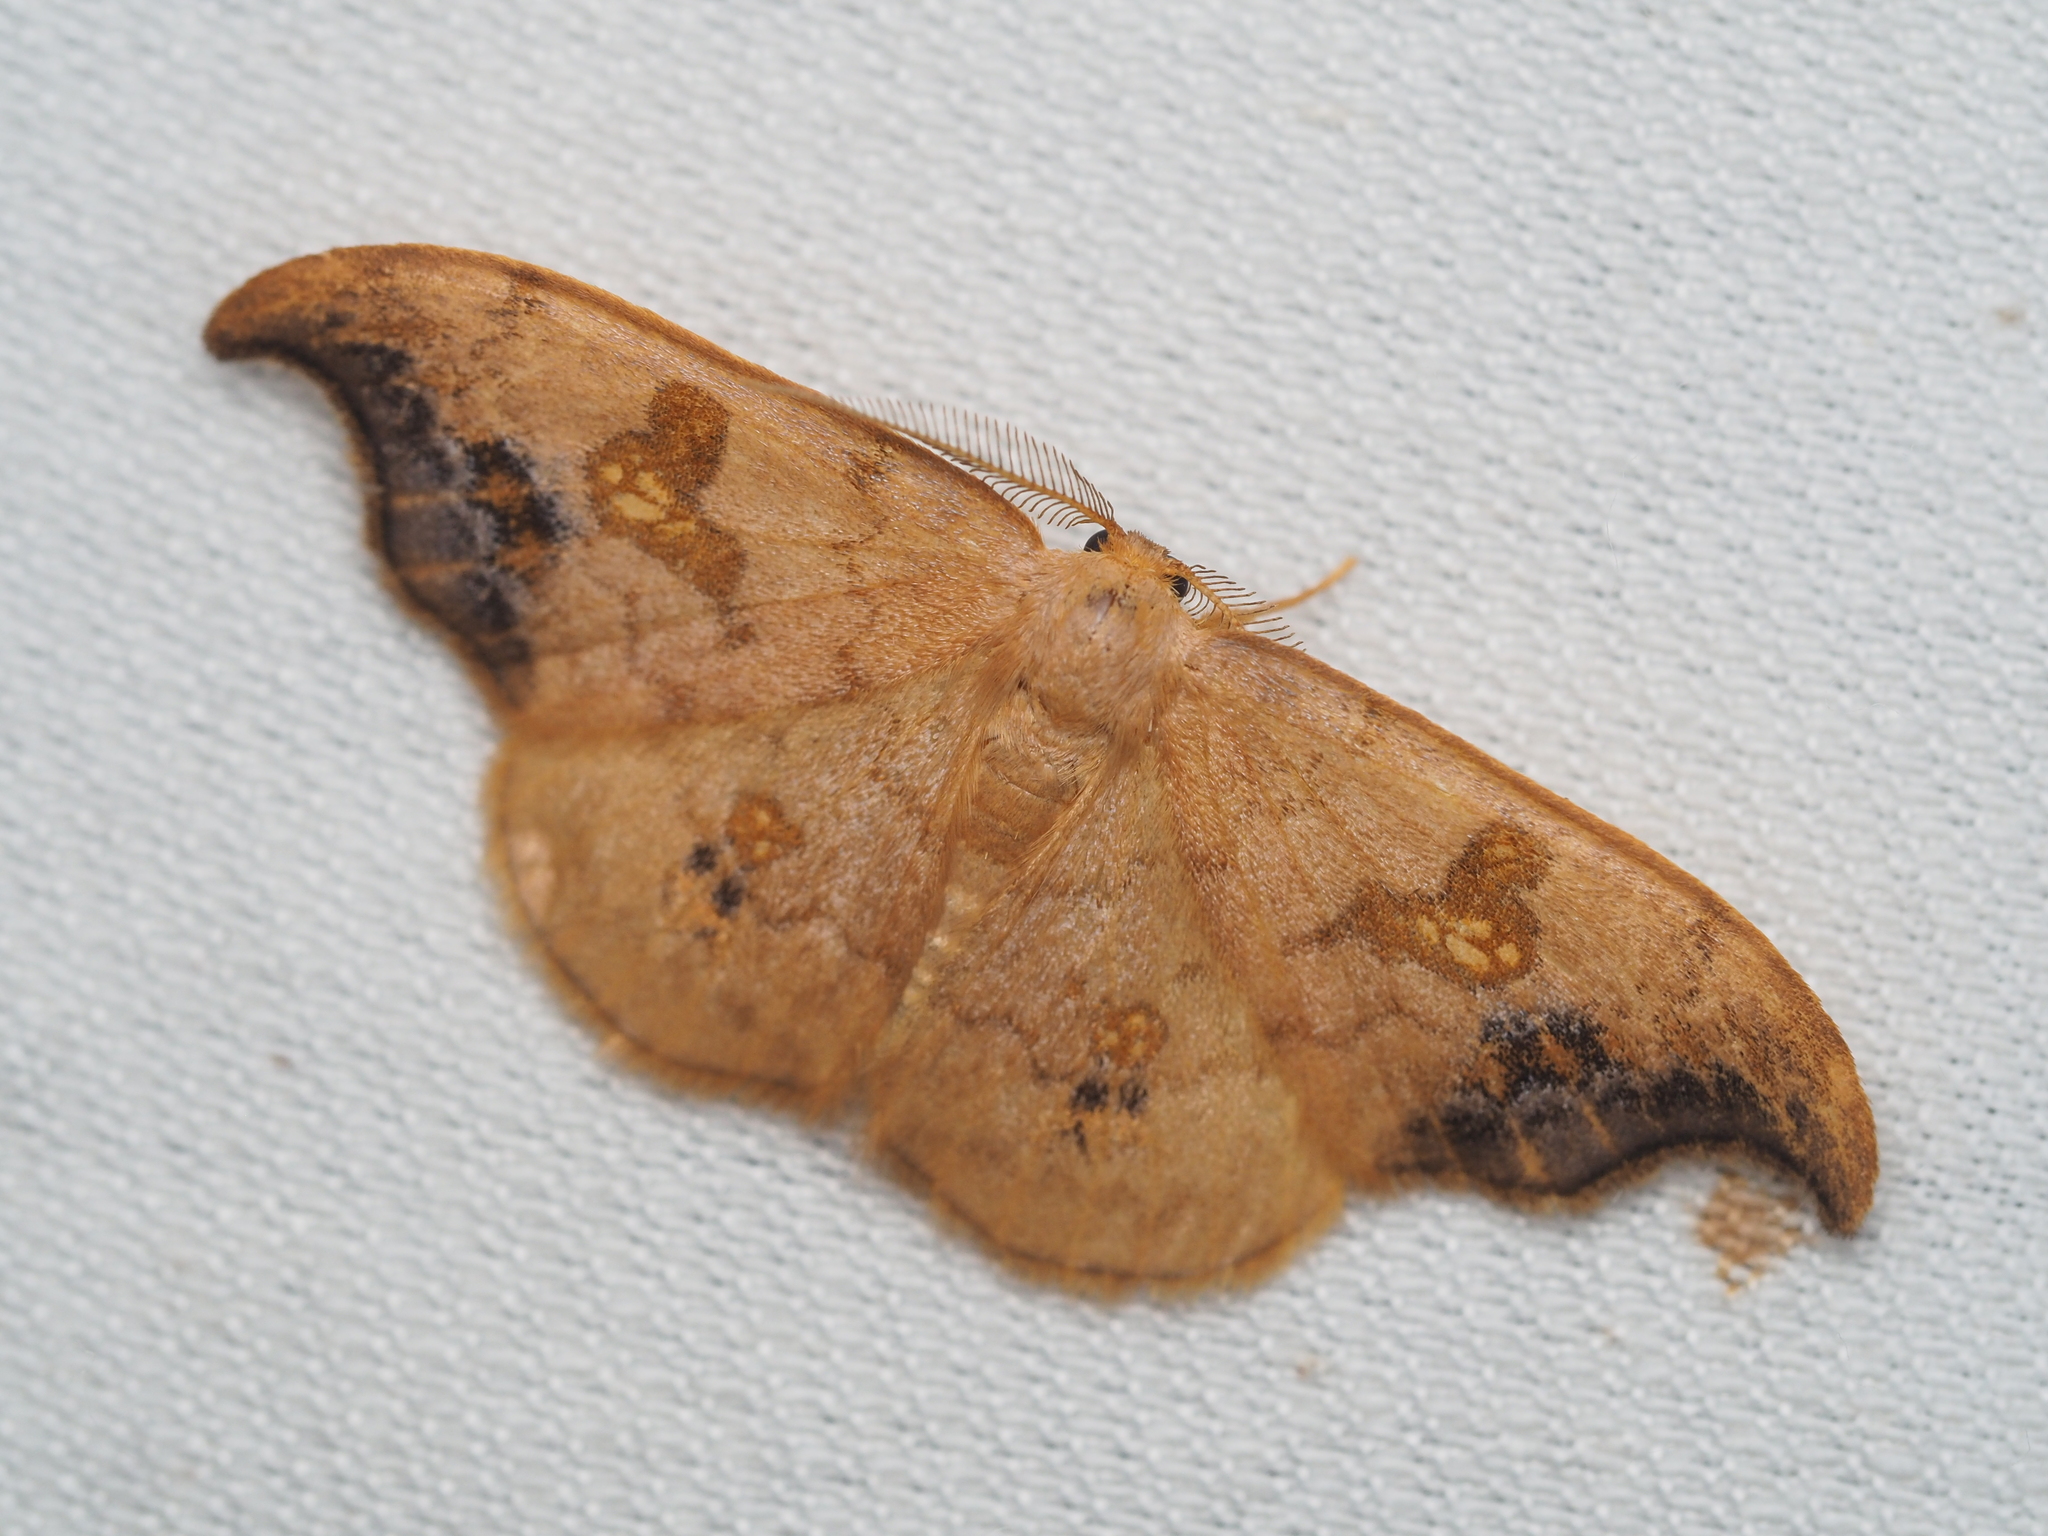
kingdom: Animalia
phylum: Arthropoda
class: Insecta
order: Lepidoptera
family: Drepanidae
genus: Sabra
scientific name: Sabra harpagula
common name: Scarce hook-tip
